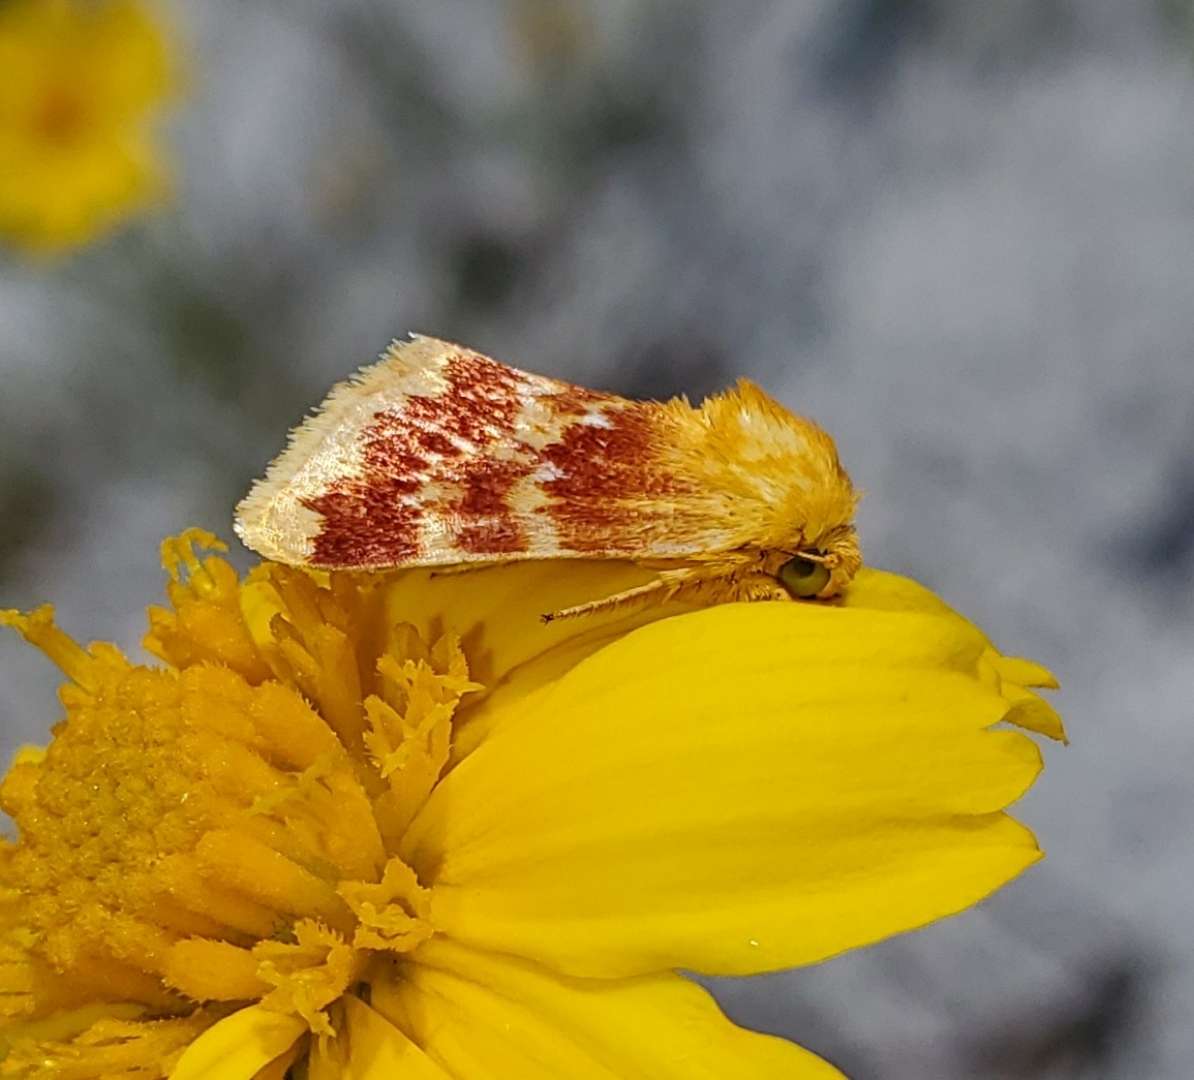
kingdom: Animalia
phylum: Arthropoda
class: Insecta
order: Lepidoptera
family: Noctuidae
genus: Schinia
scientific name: Schinia fulleri
